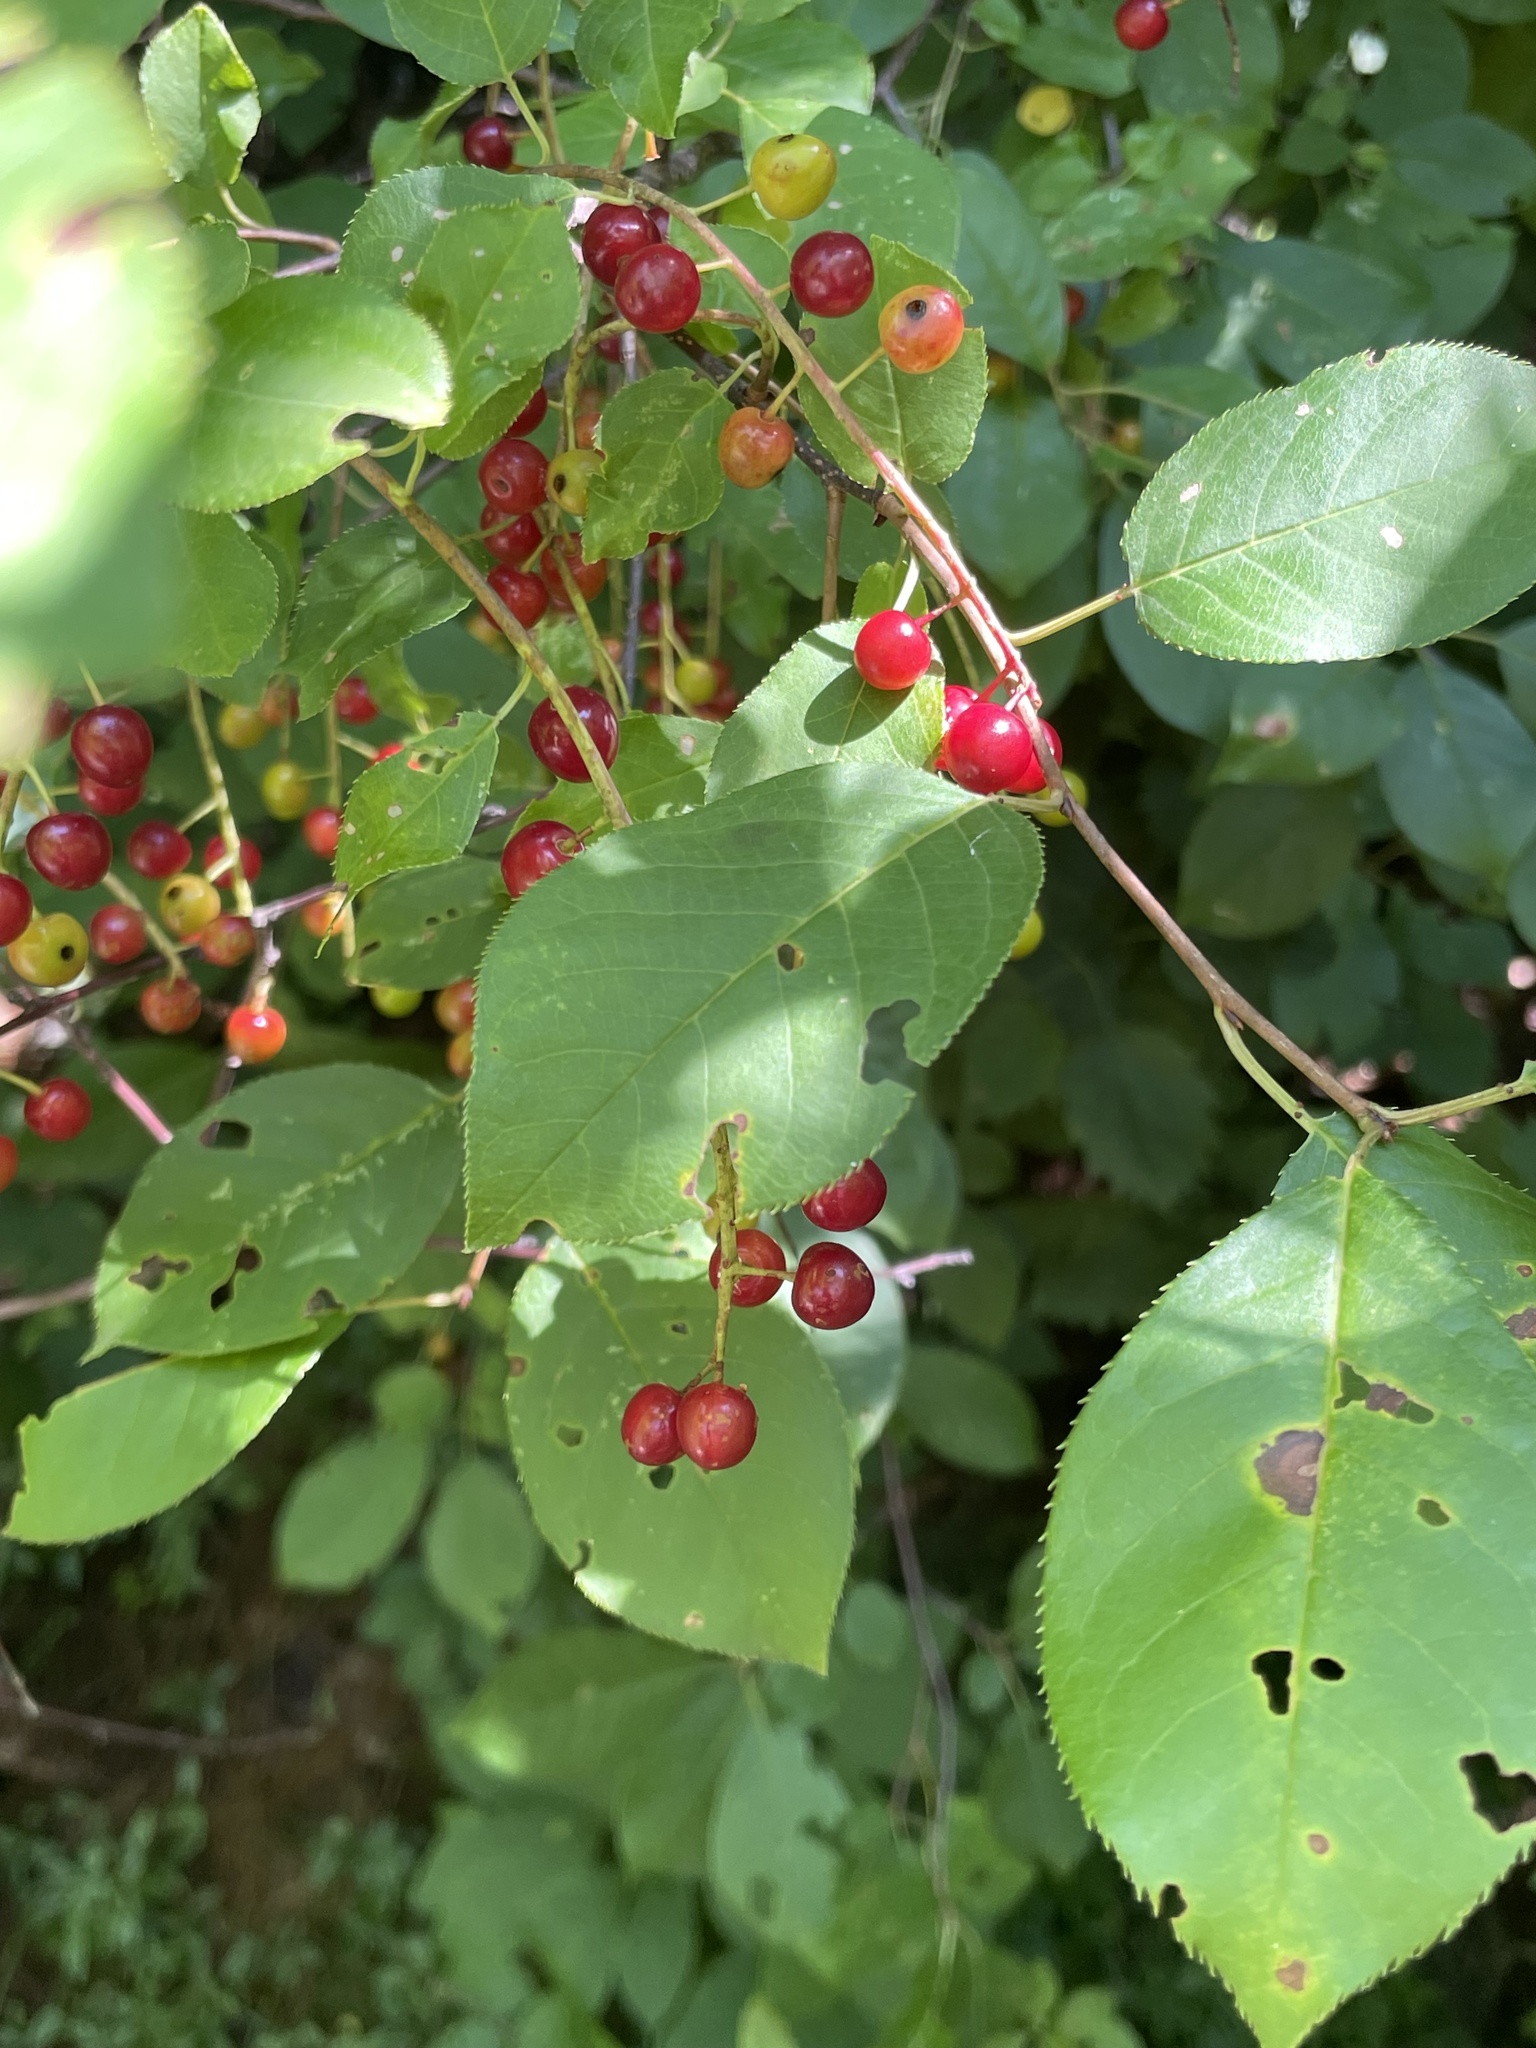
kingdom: Plantae
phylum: Tracheophyta
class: Magnoliopsida
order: Rosales
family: Rosaceae
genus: Prunus
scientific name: Prunus virginiana
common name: Chokecherry
